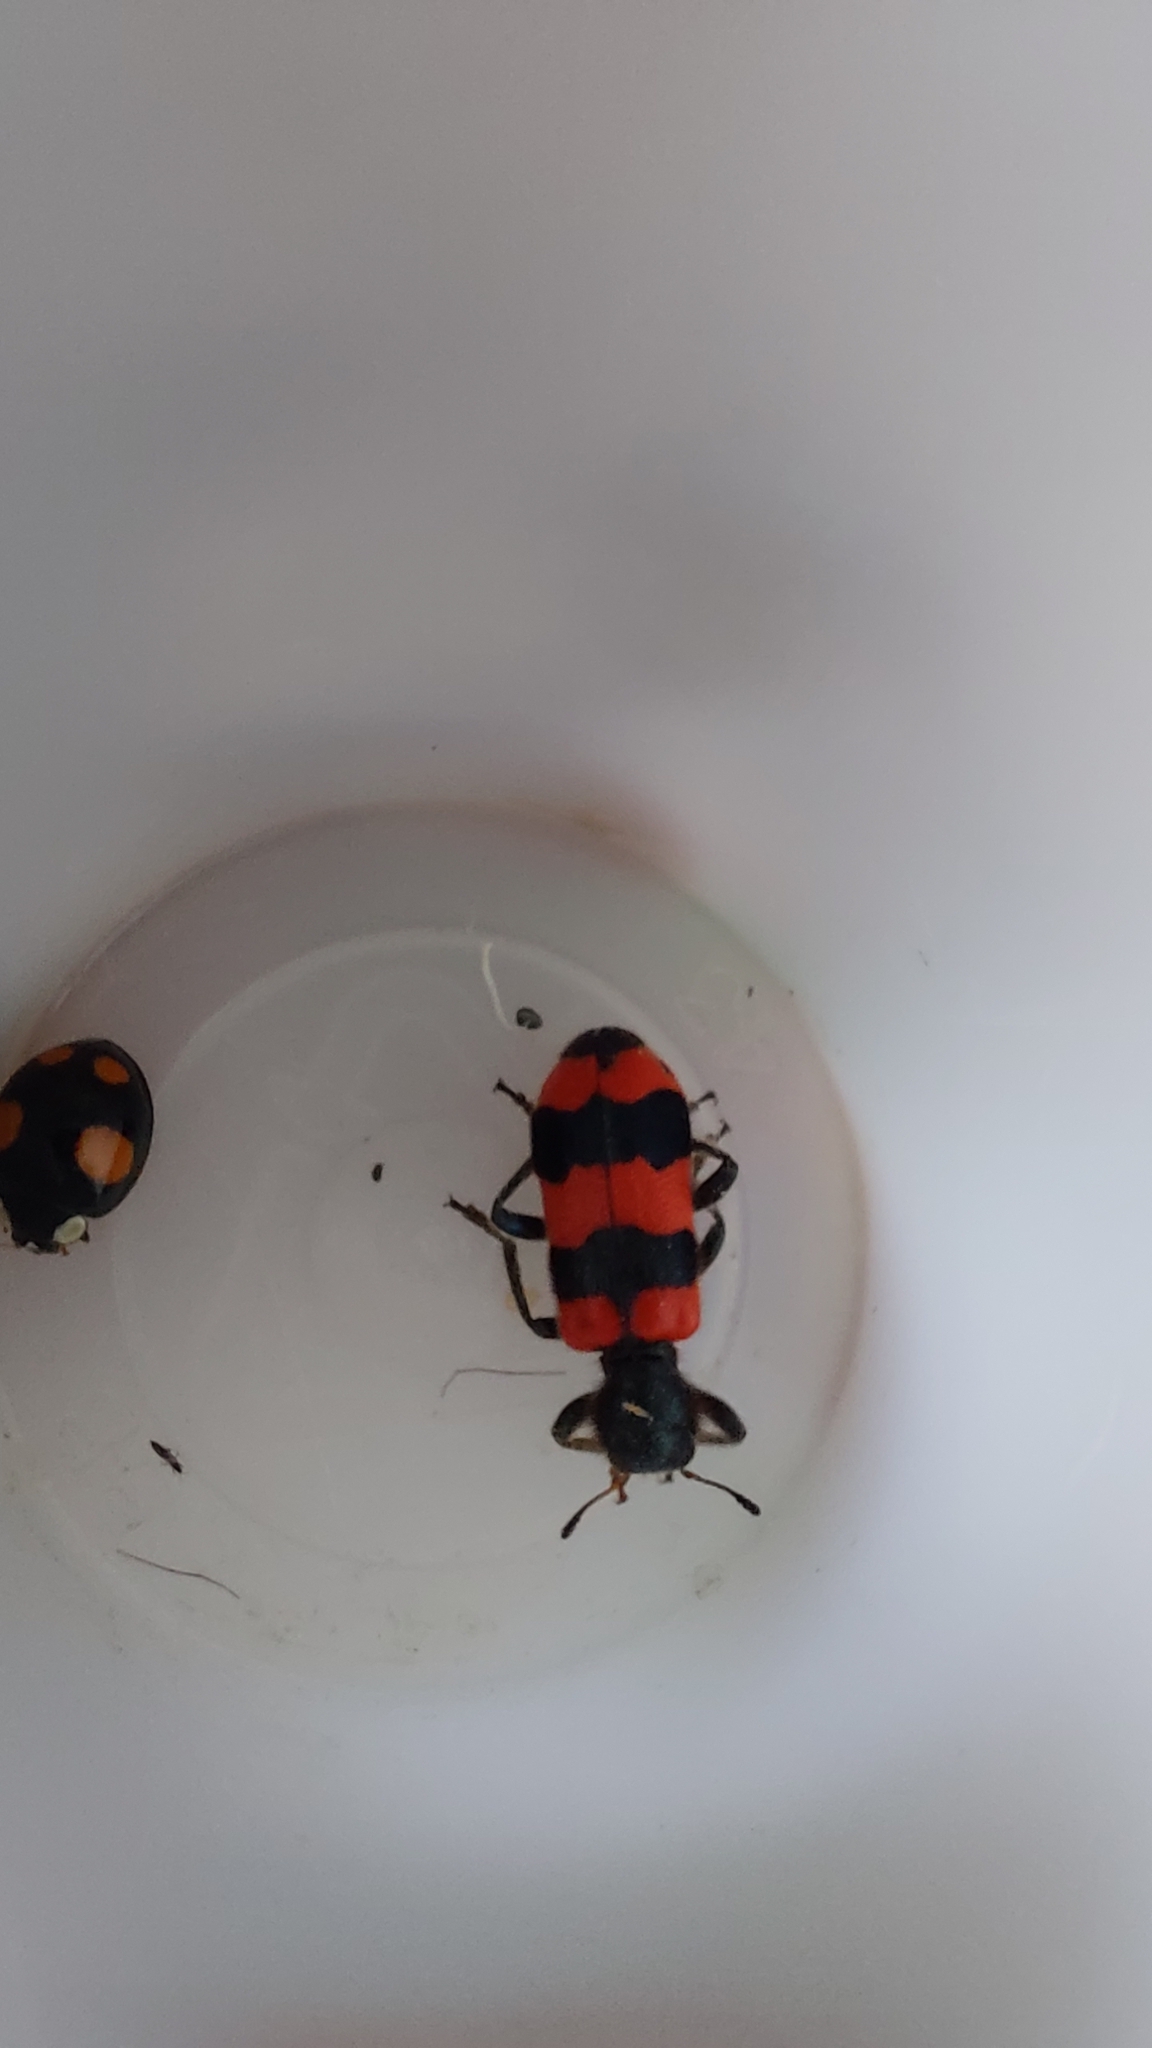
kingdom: Animalia
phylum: Arthropoda
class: Insecta
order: Coleoptera
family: Cleridae
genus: Trichodes
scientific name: Trichodes apiarius
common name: Bee-eating beetle
